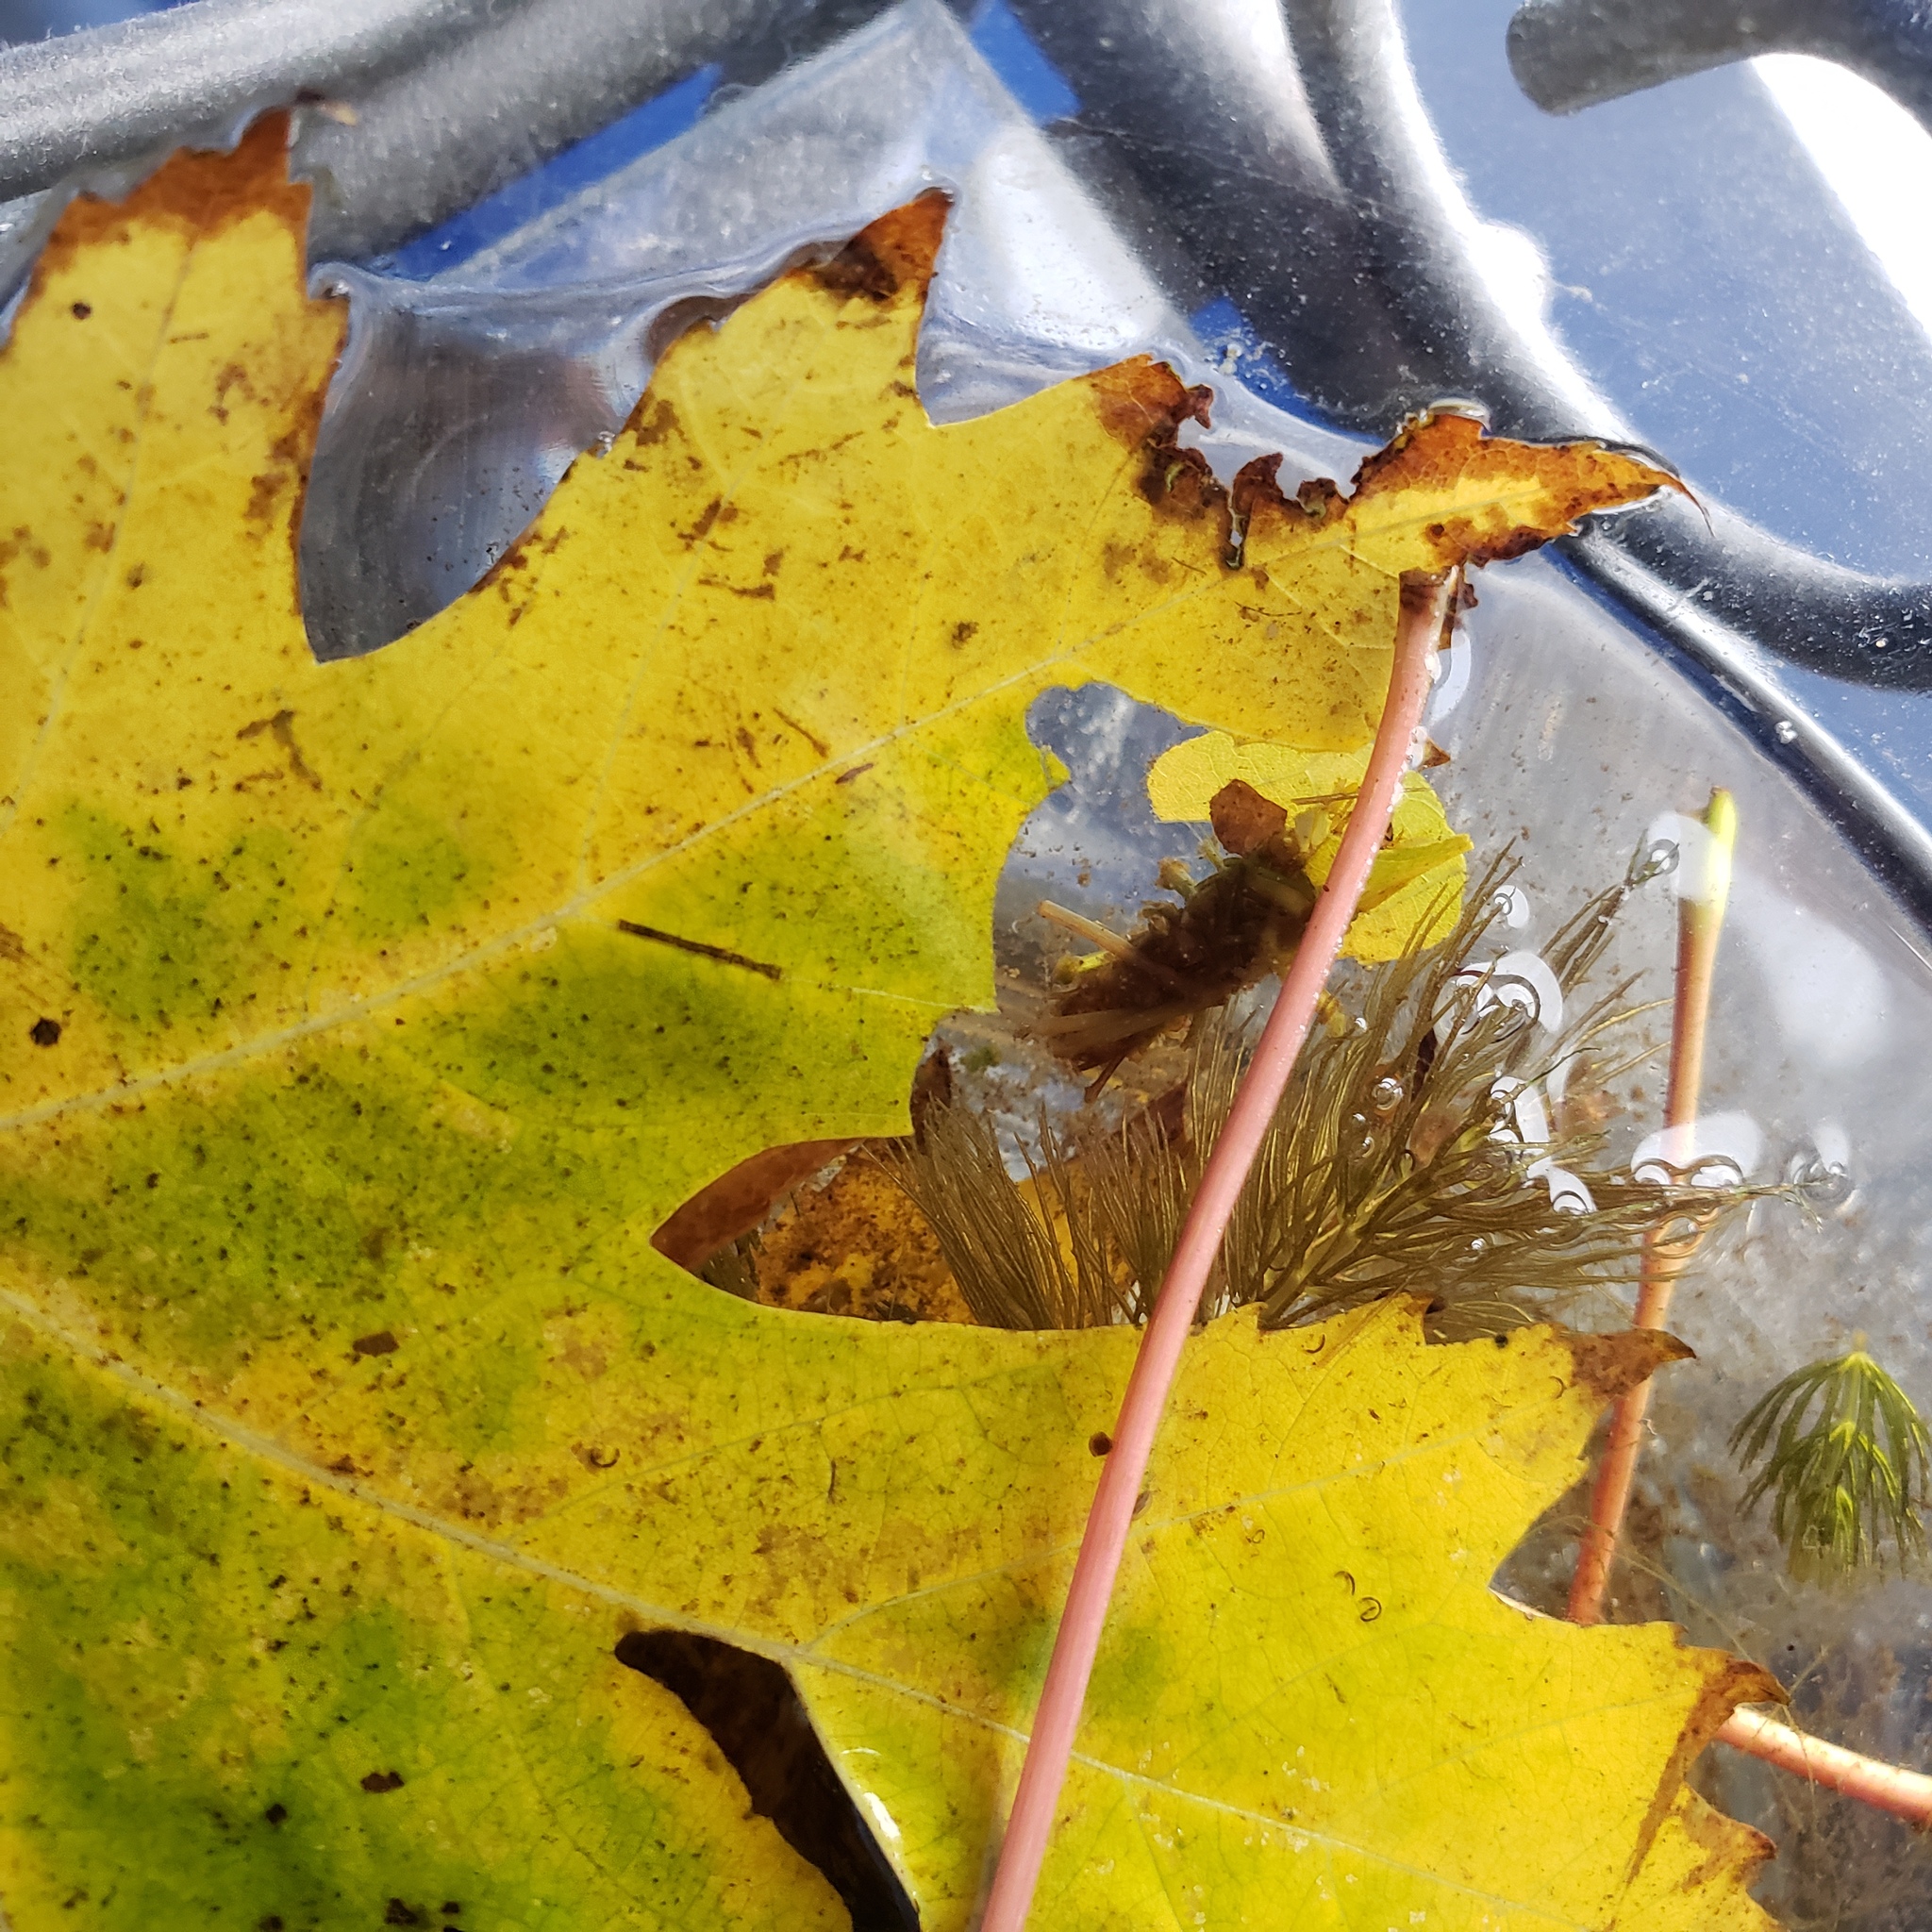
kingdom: Animalia
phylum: Arthropoda
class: Insecta
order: Trichoptera
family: Limnephilidae
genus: Nemotaulius
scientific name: Nemotaulius hostilis
